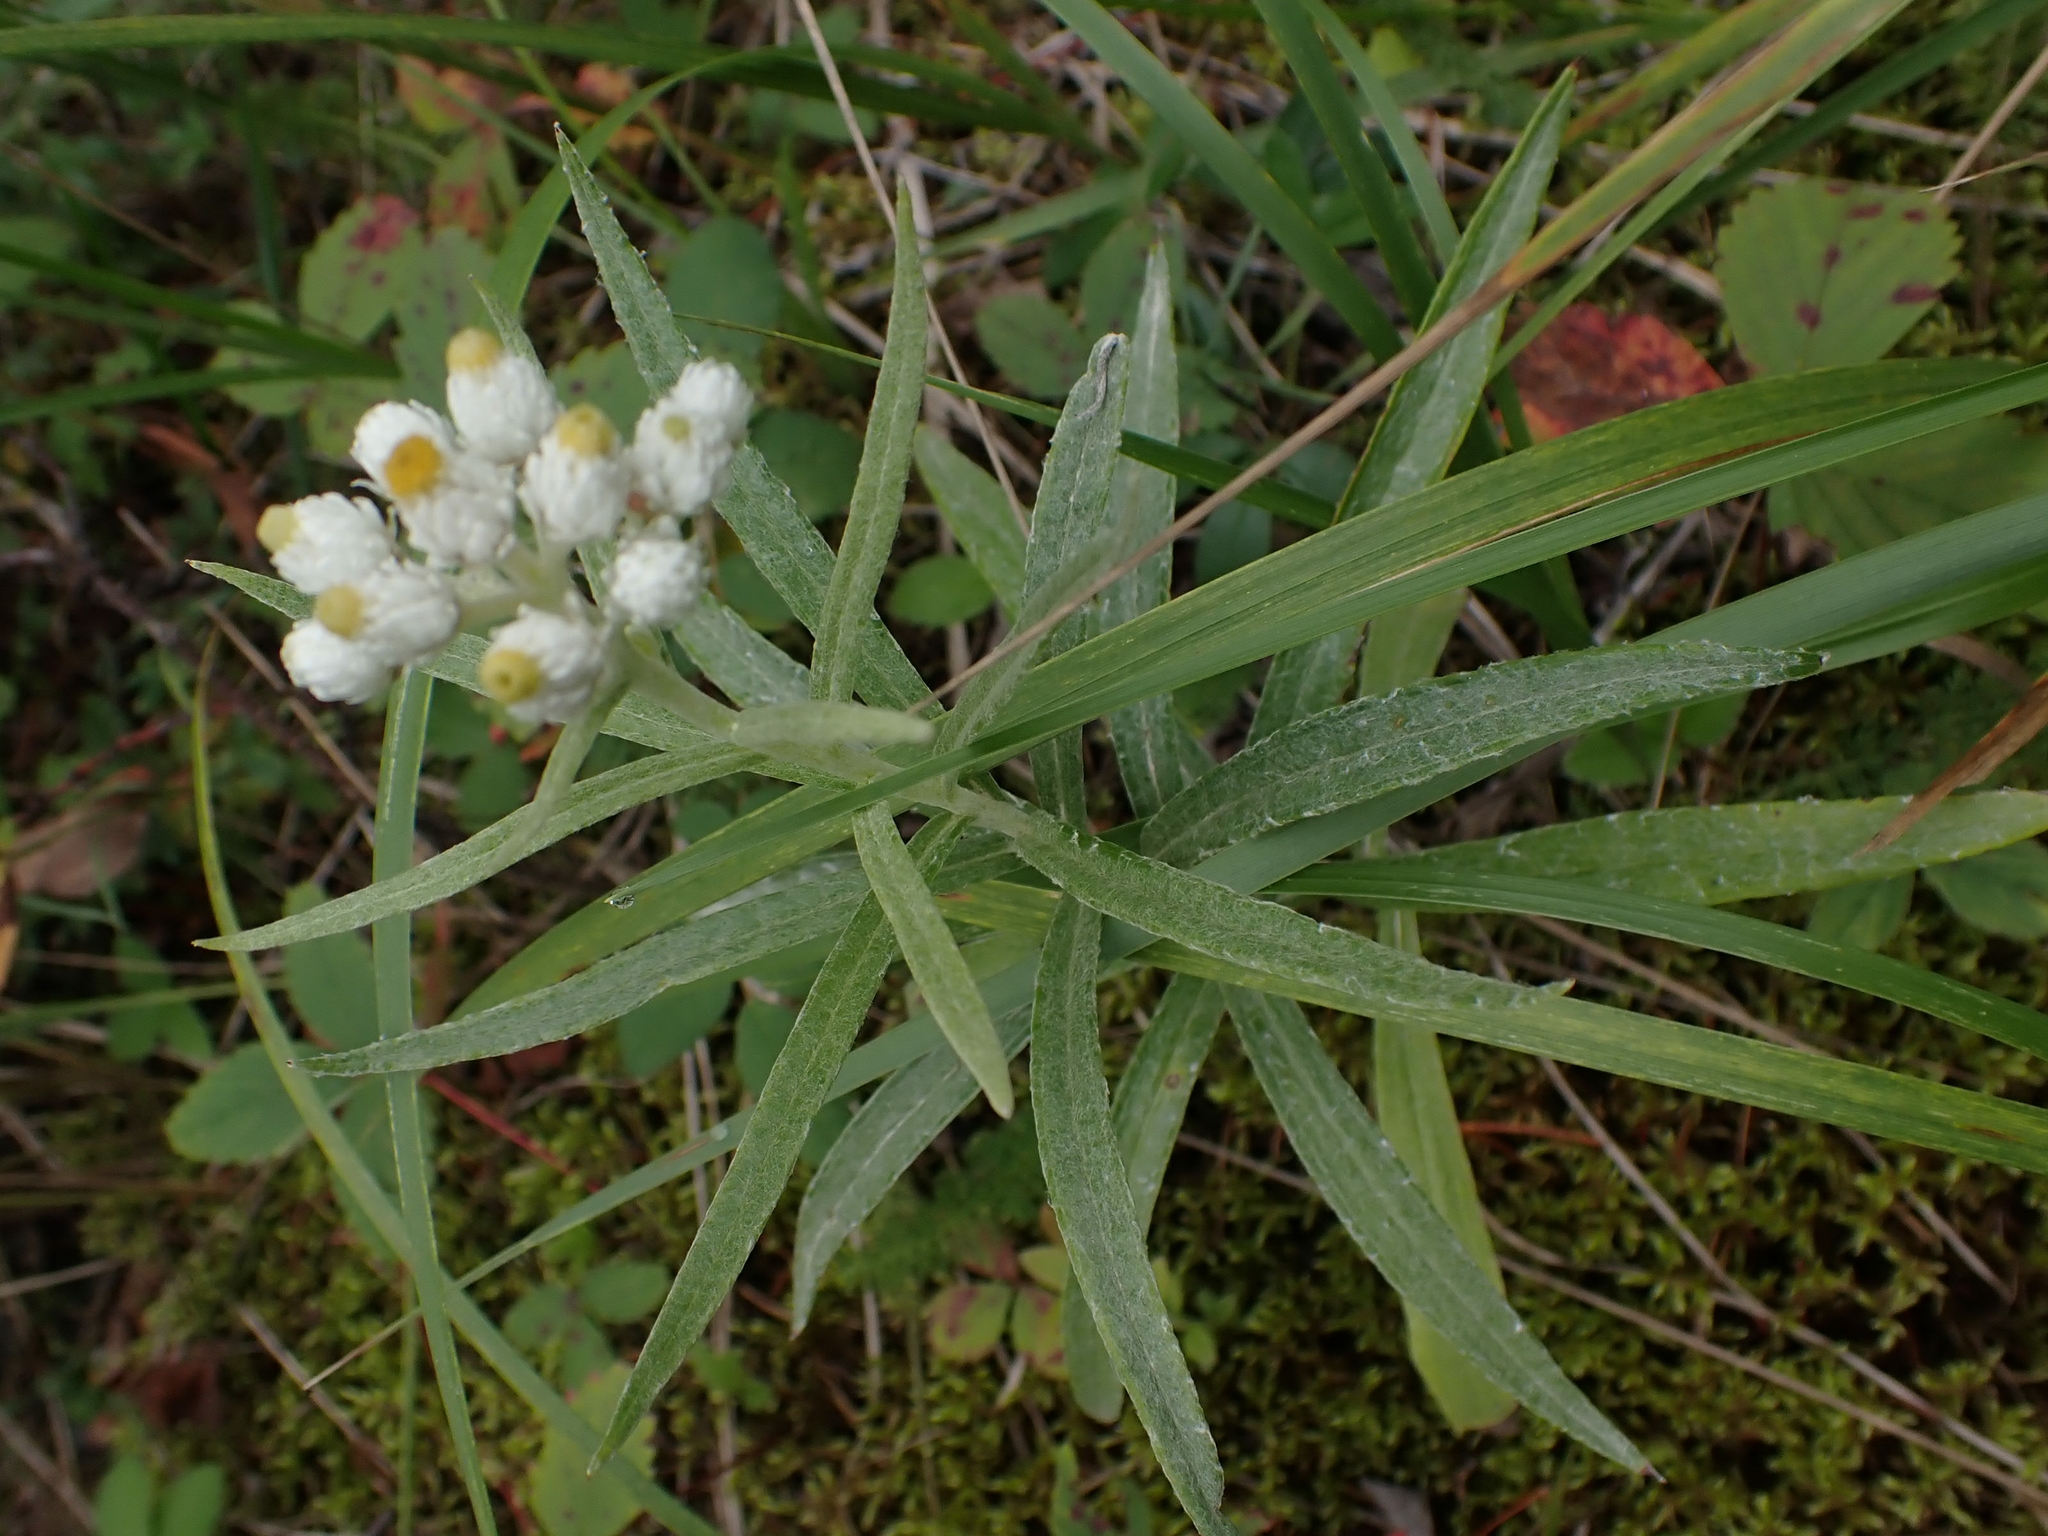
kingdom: Plantae
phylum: Tracheophyta
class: Magnoliopsida
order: Asterales
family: Asteraceae
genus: Anaphalis
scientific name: Anaphalis margaritacea
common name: Pearly everlasting
